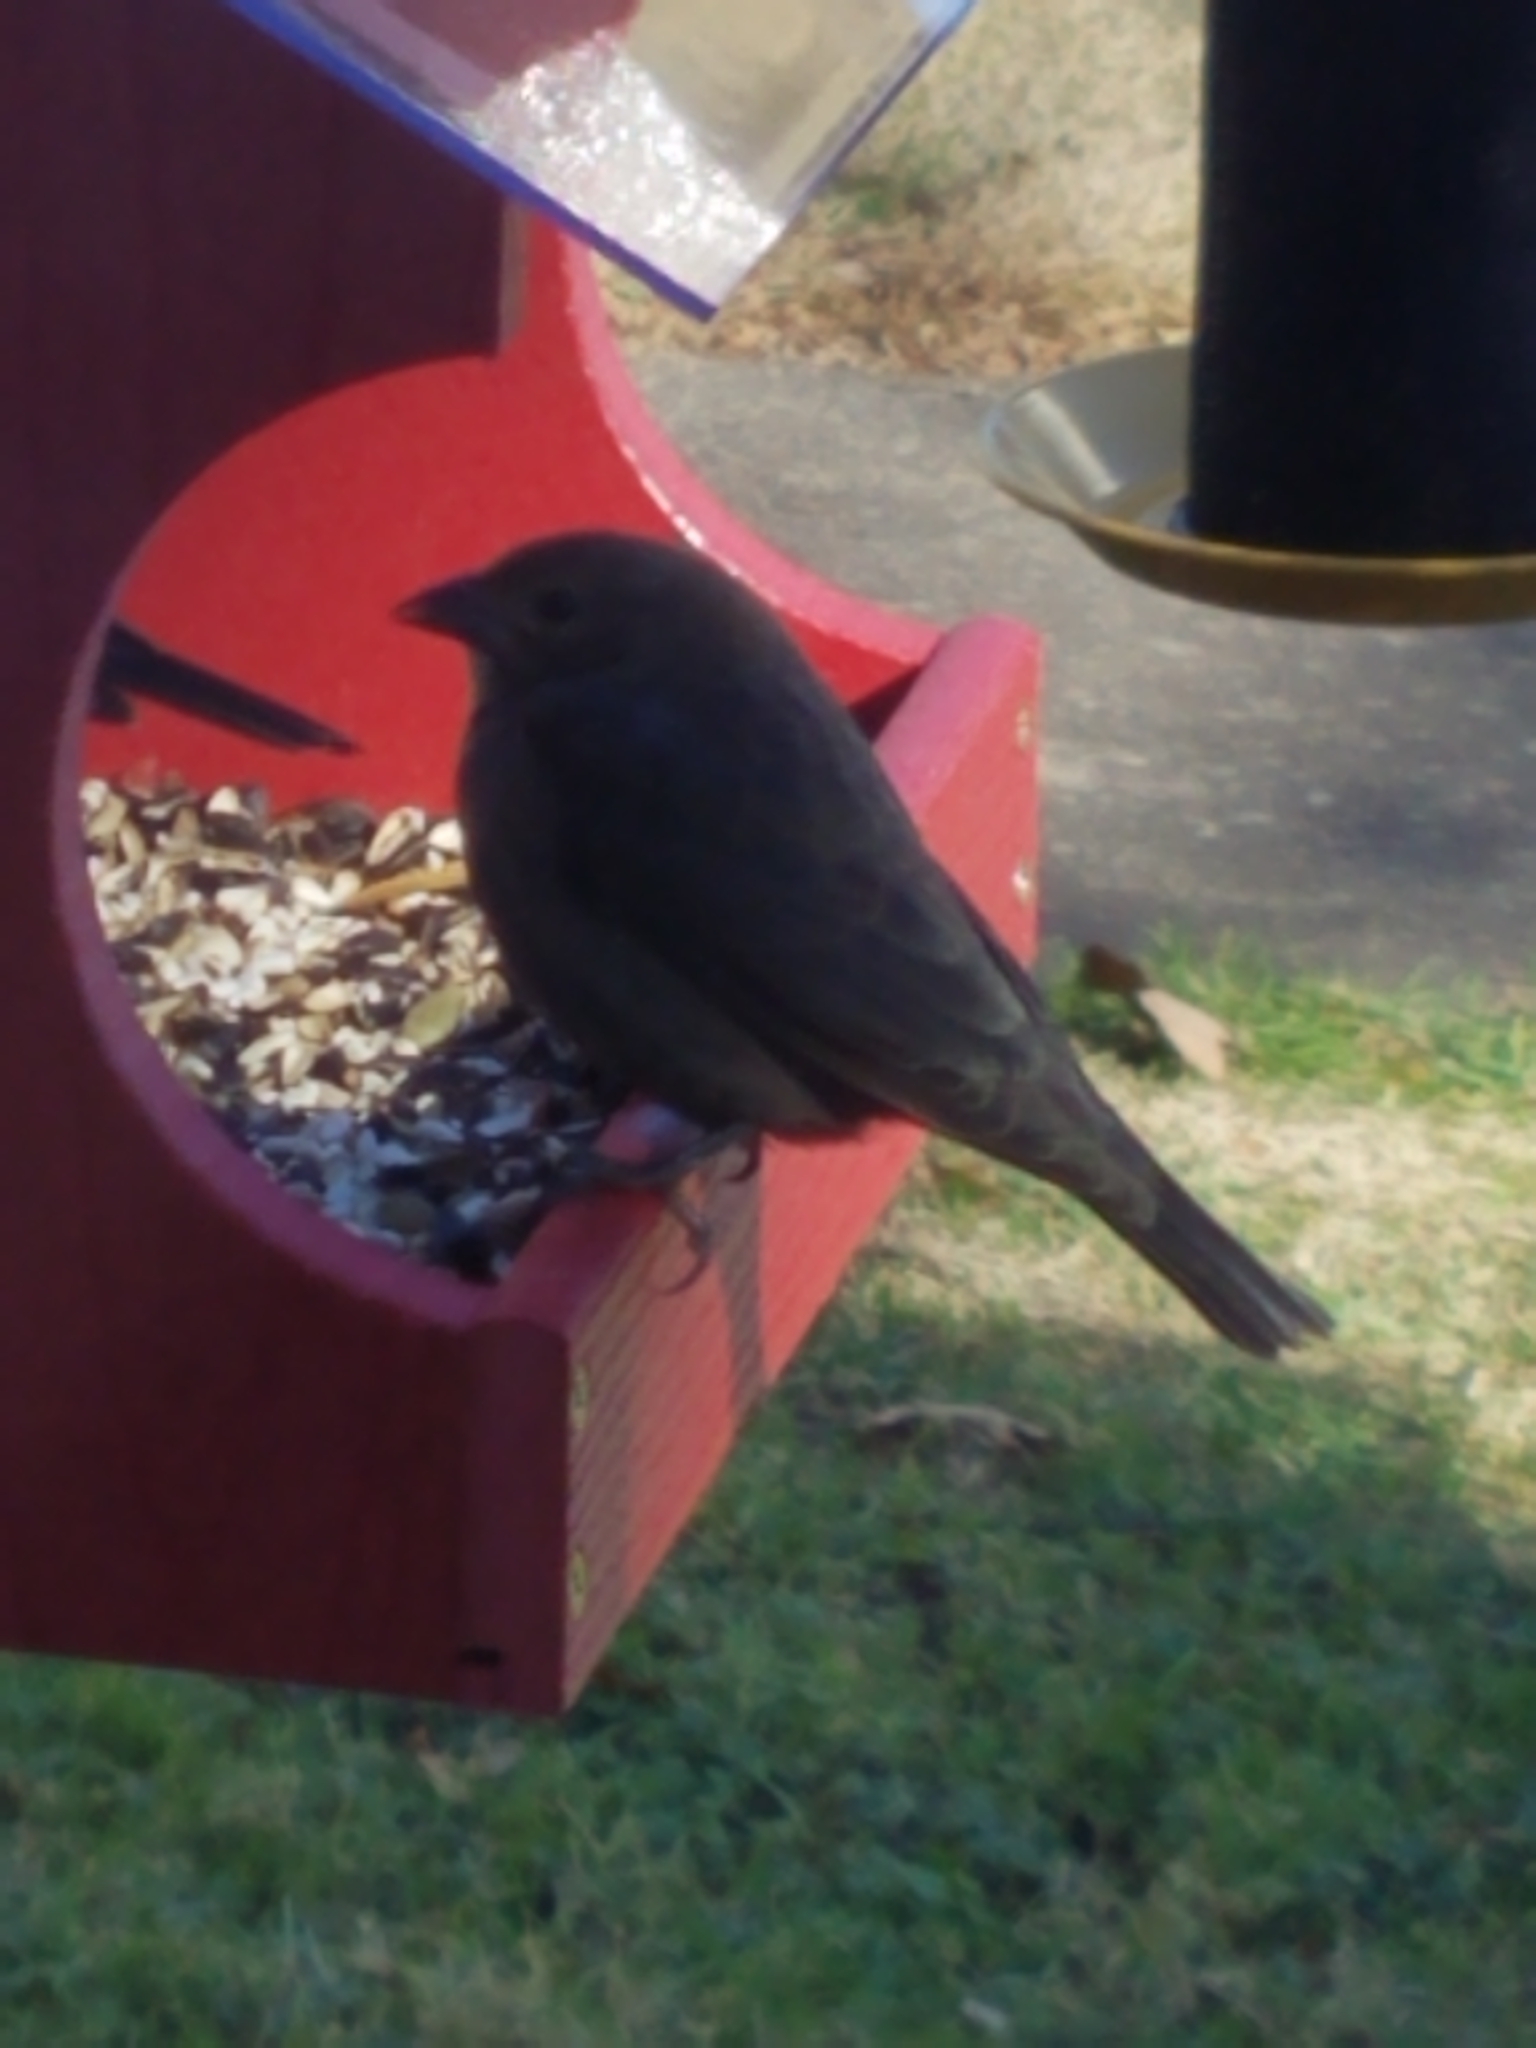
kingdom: Animalia
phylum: Chordata
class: Aves
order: Passeriformes
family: Icteridae
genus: Molothrus
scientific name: Molothrus ater
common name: Brown-headed cowbird
